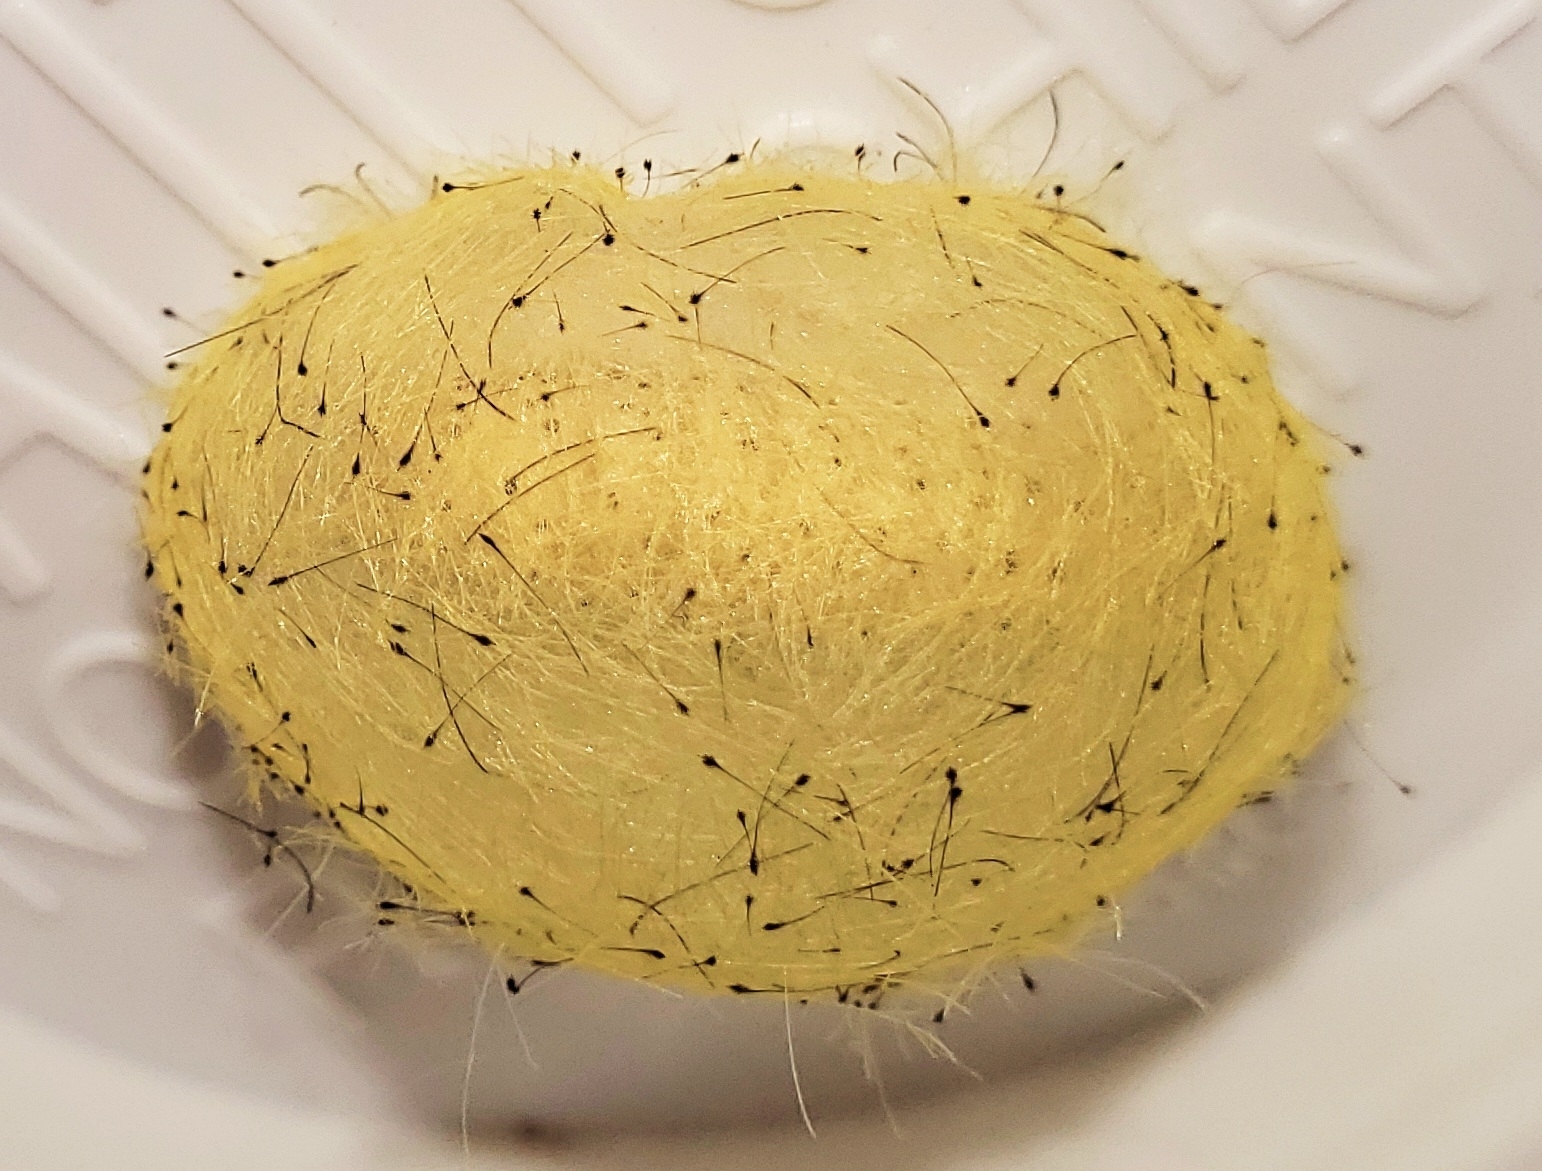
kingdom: Animalia
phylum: Arthropoda
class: Insecta
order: Lepidoptera
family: Erebidae
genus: Cosmosoma
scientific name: Cosmosoma myrodora
